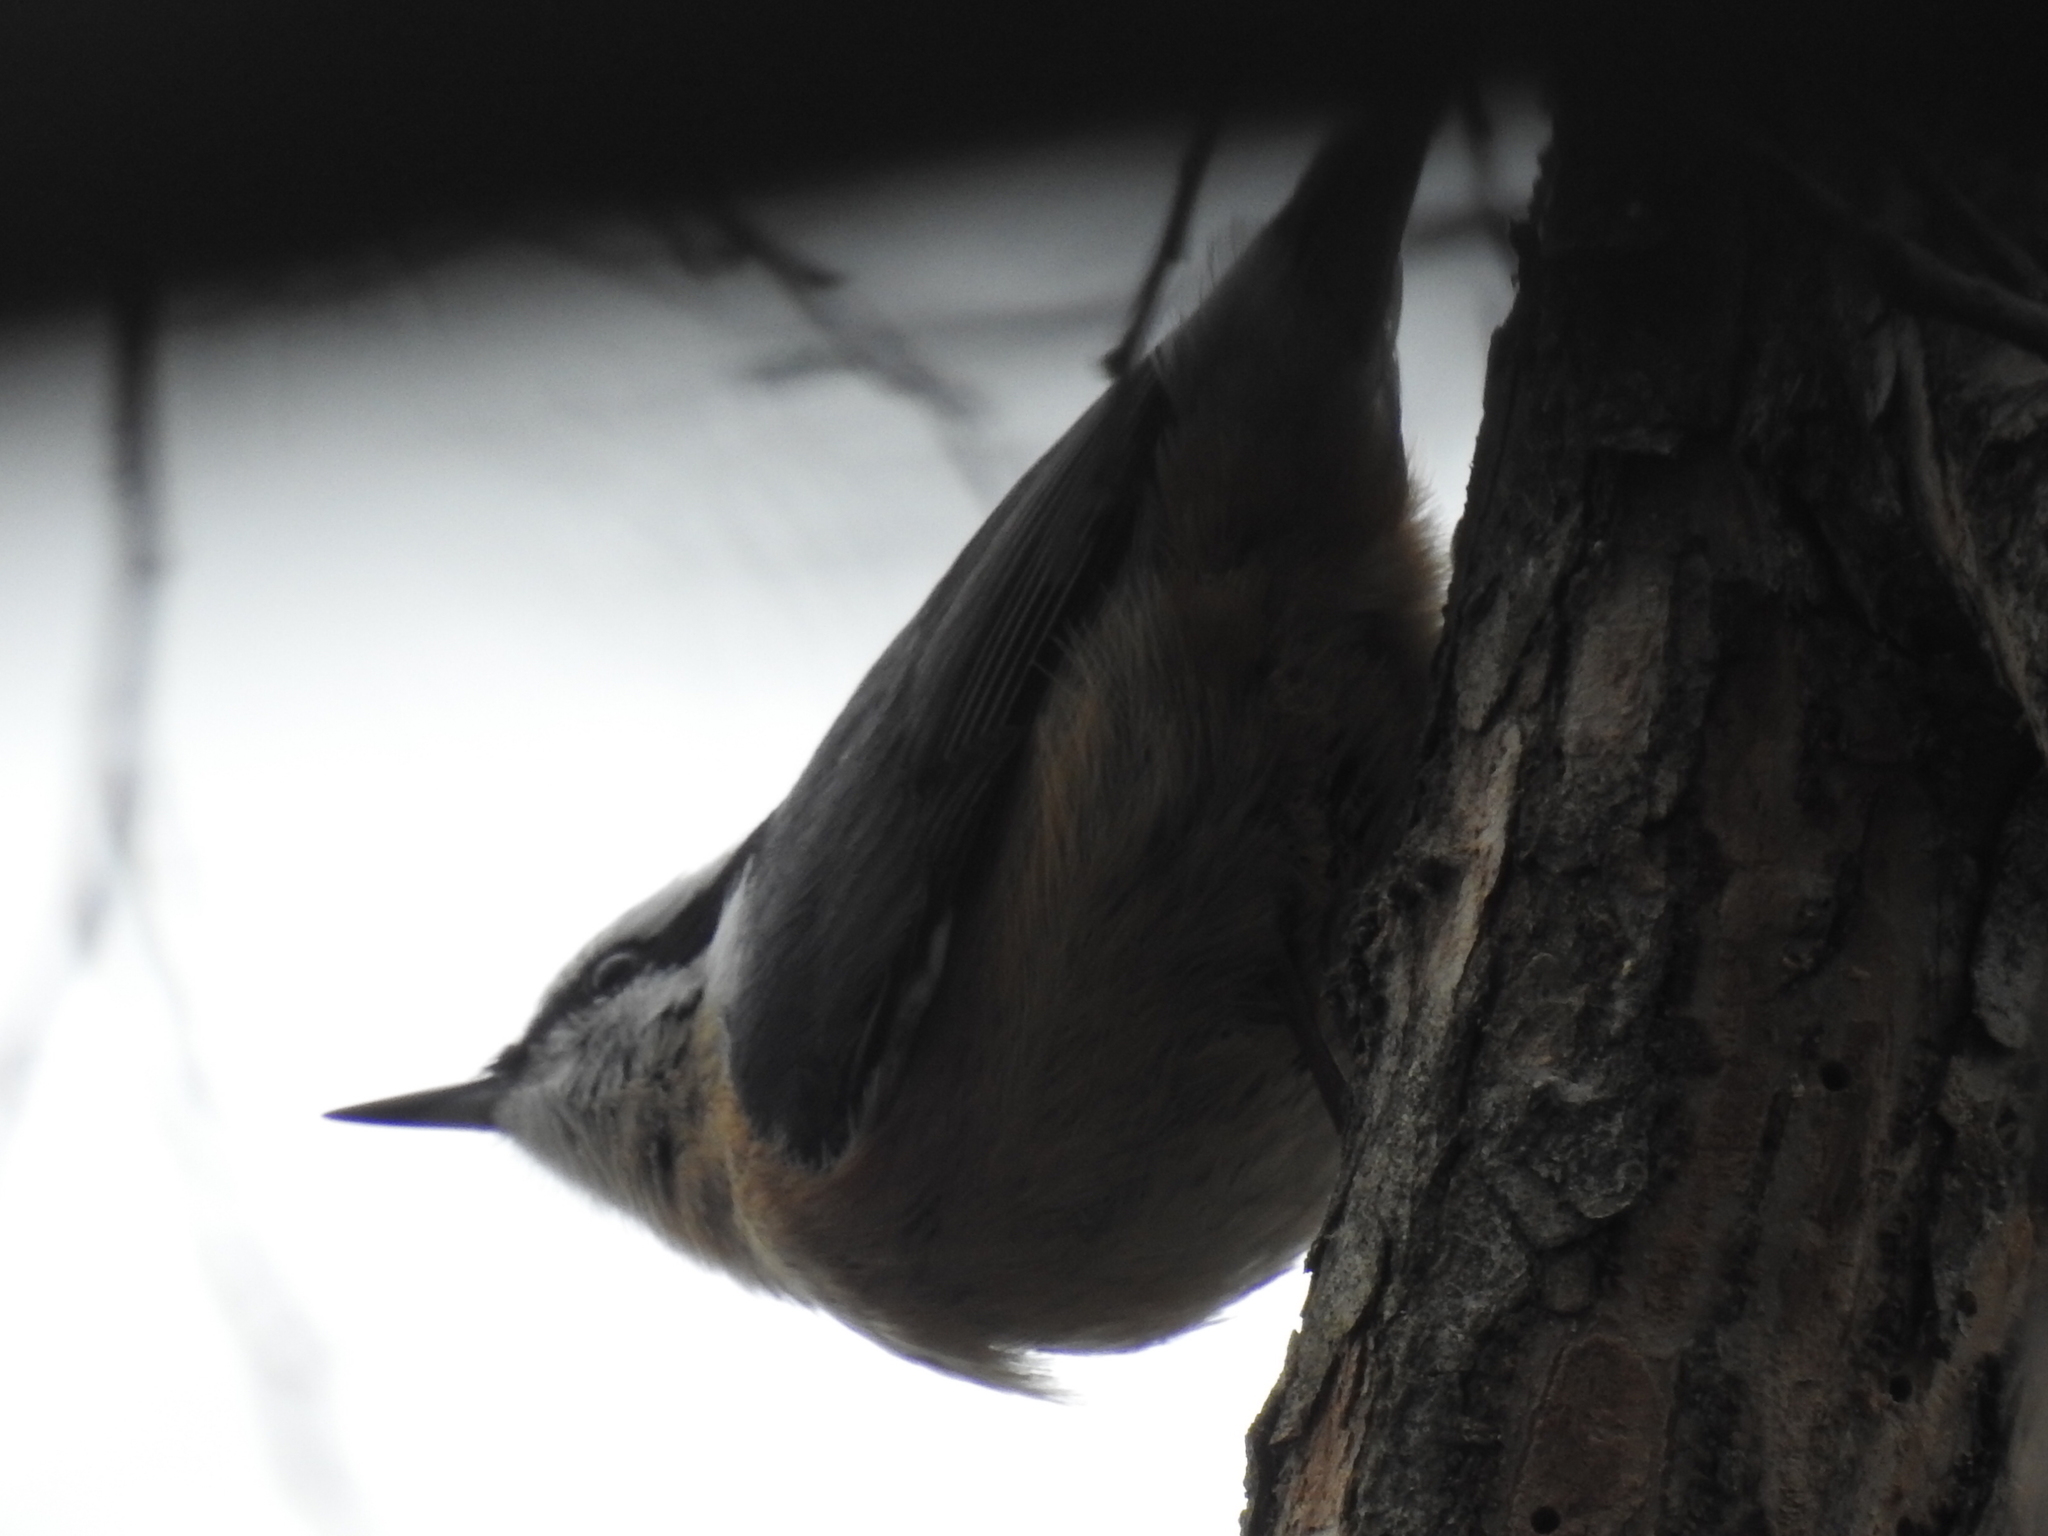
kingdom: Animalia
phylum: Chordata
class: Aves
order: Passeriformes
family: Sittidae
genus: Sitta
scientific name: Sitta canadensis
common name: Red-breasted nuthatch
